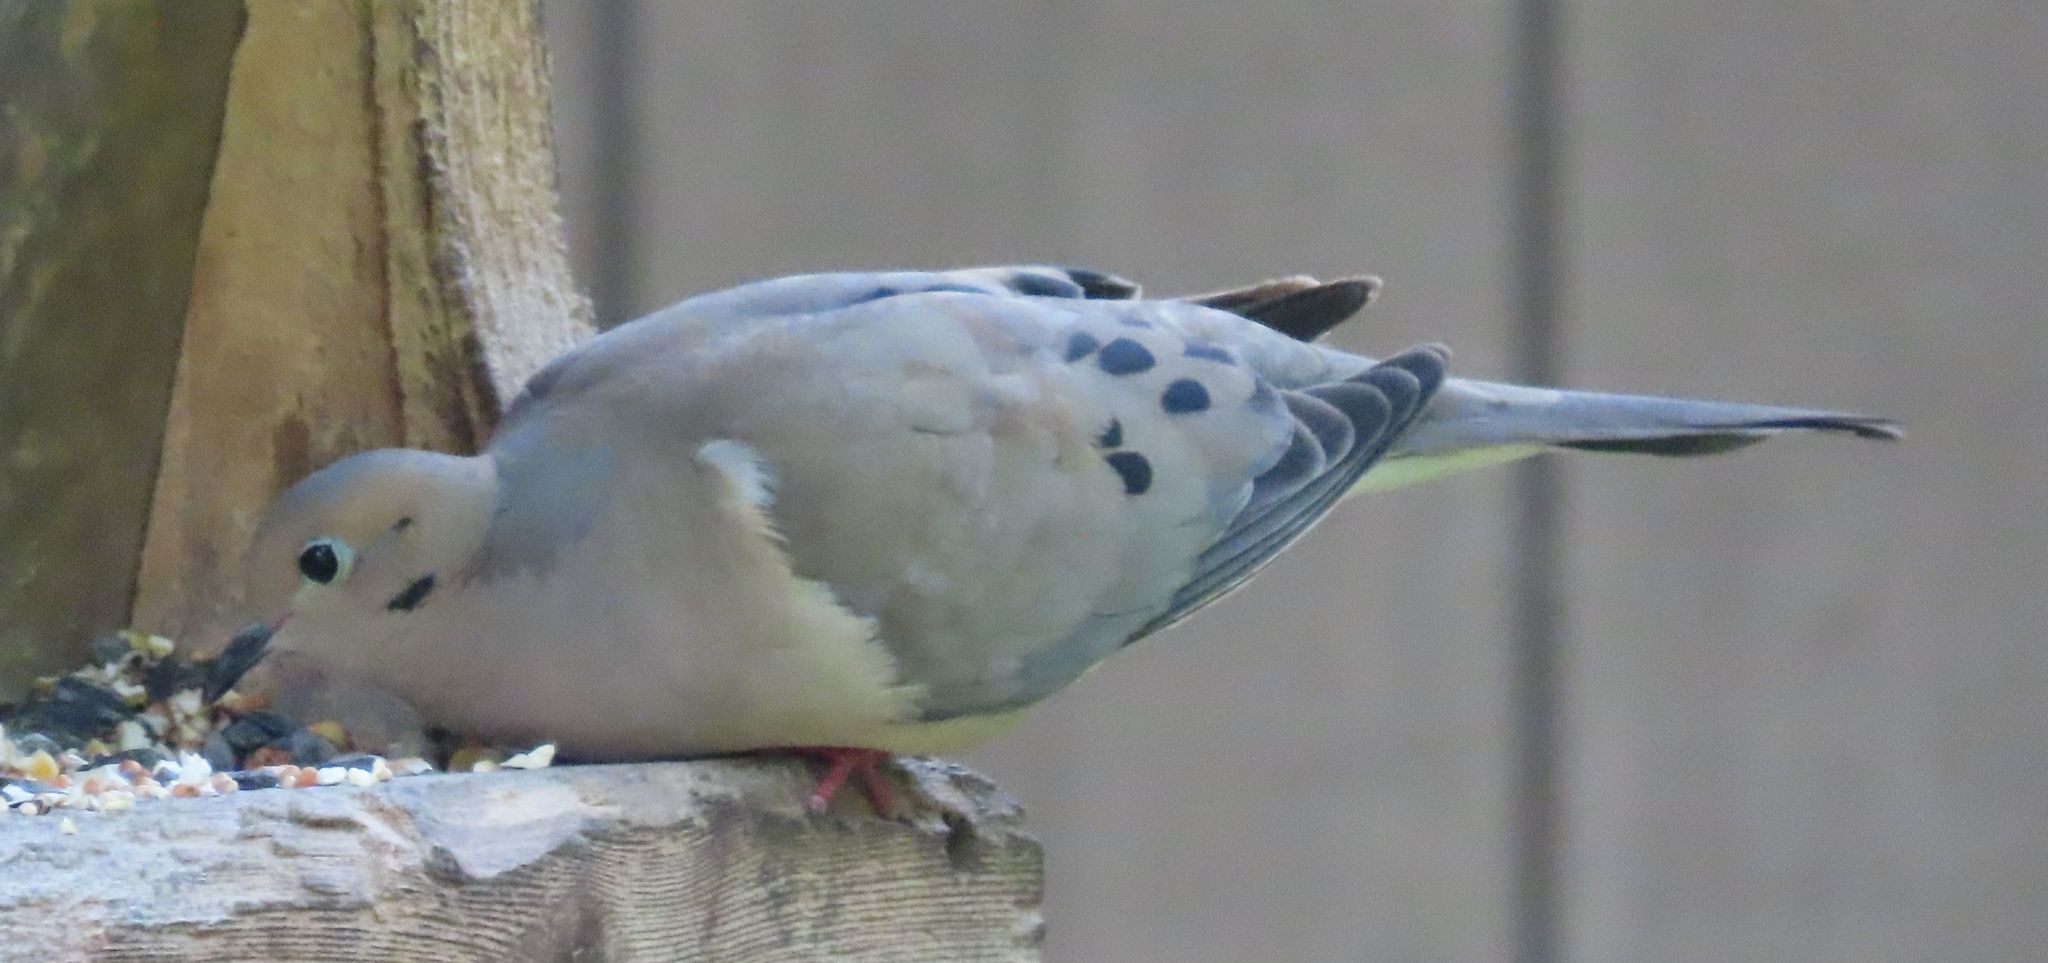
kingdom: Animalia
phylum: Chordata
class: Aves
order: Columbiformes
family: Columbidae
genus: Zenaida
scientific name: Zenaida macroura
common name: Mourning dove
